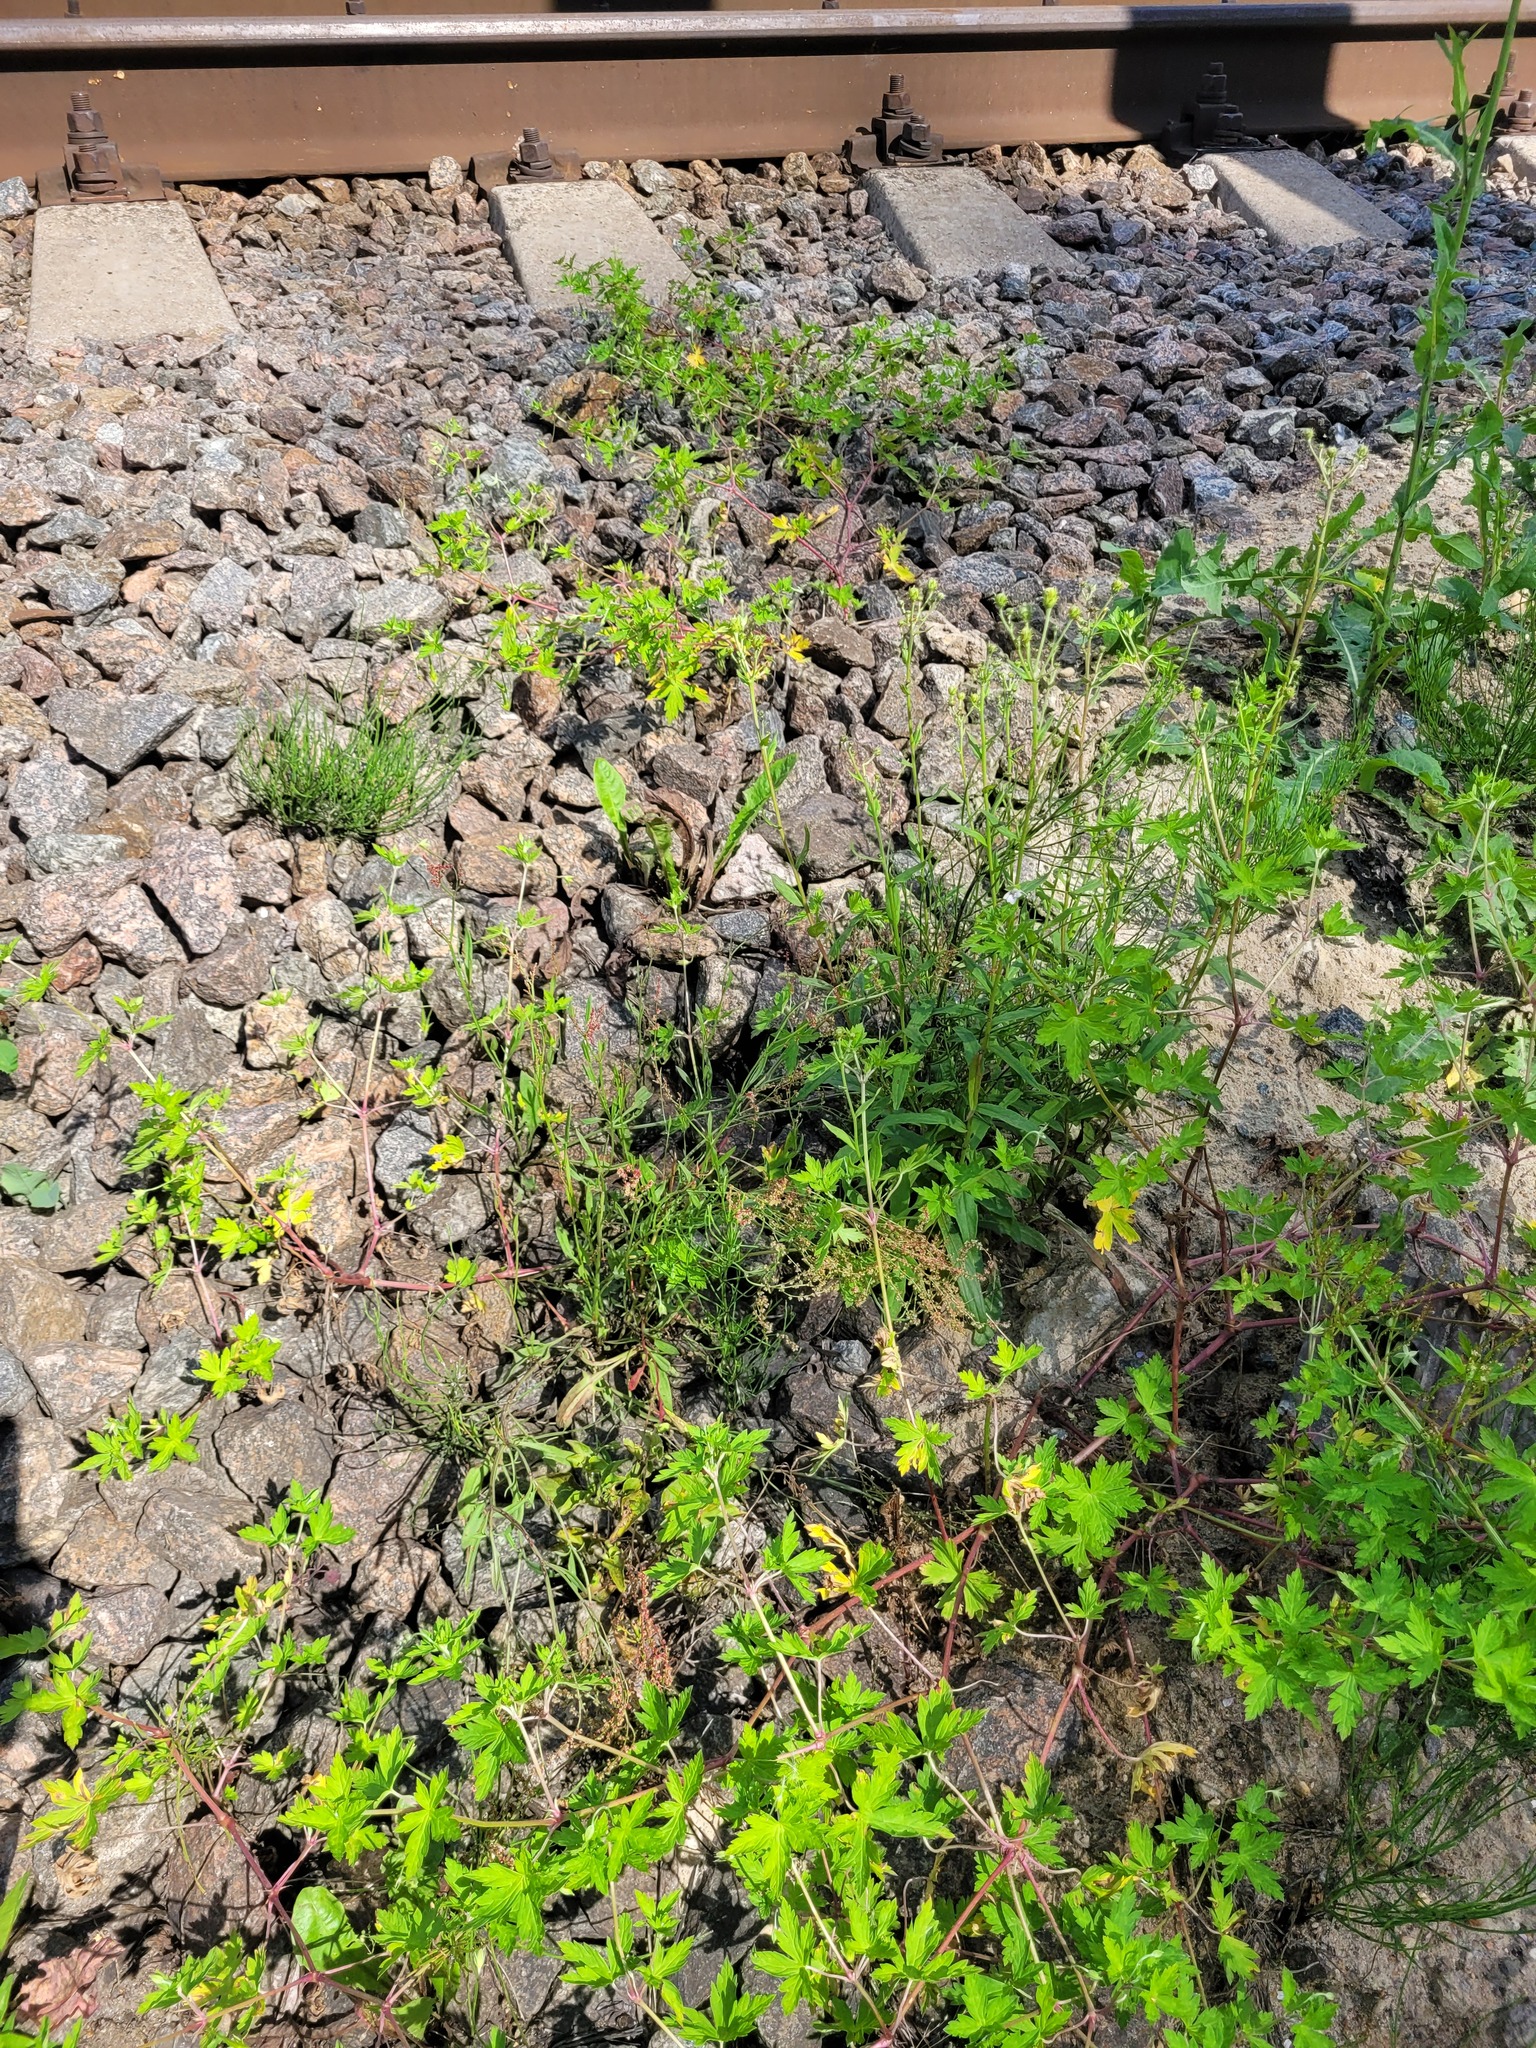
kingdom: Plantae
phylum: Tracheophyta
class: Magnoliopsida
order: Asterales
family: Asteraceae
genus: Hieracium
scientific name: Hieracium umbellatum
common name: Northern hawkweed
